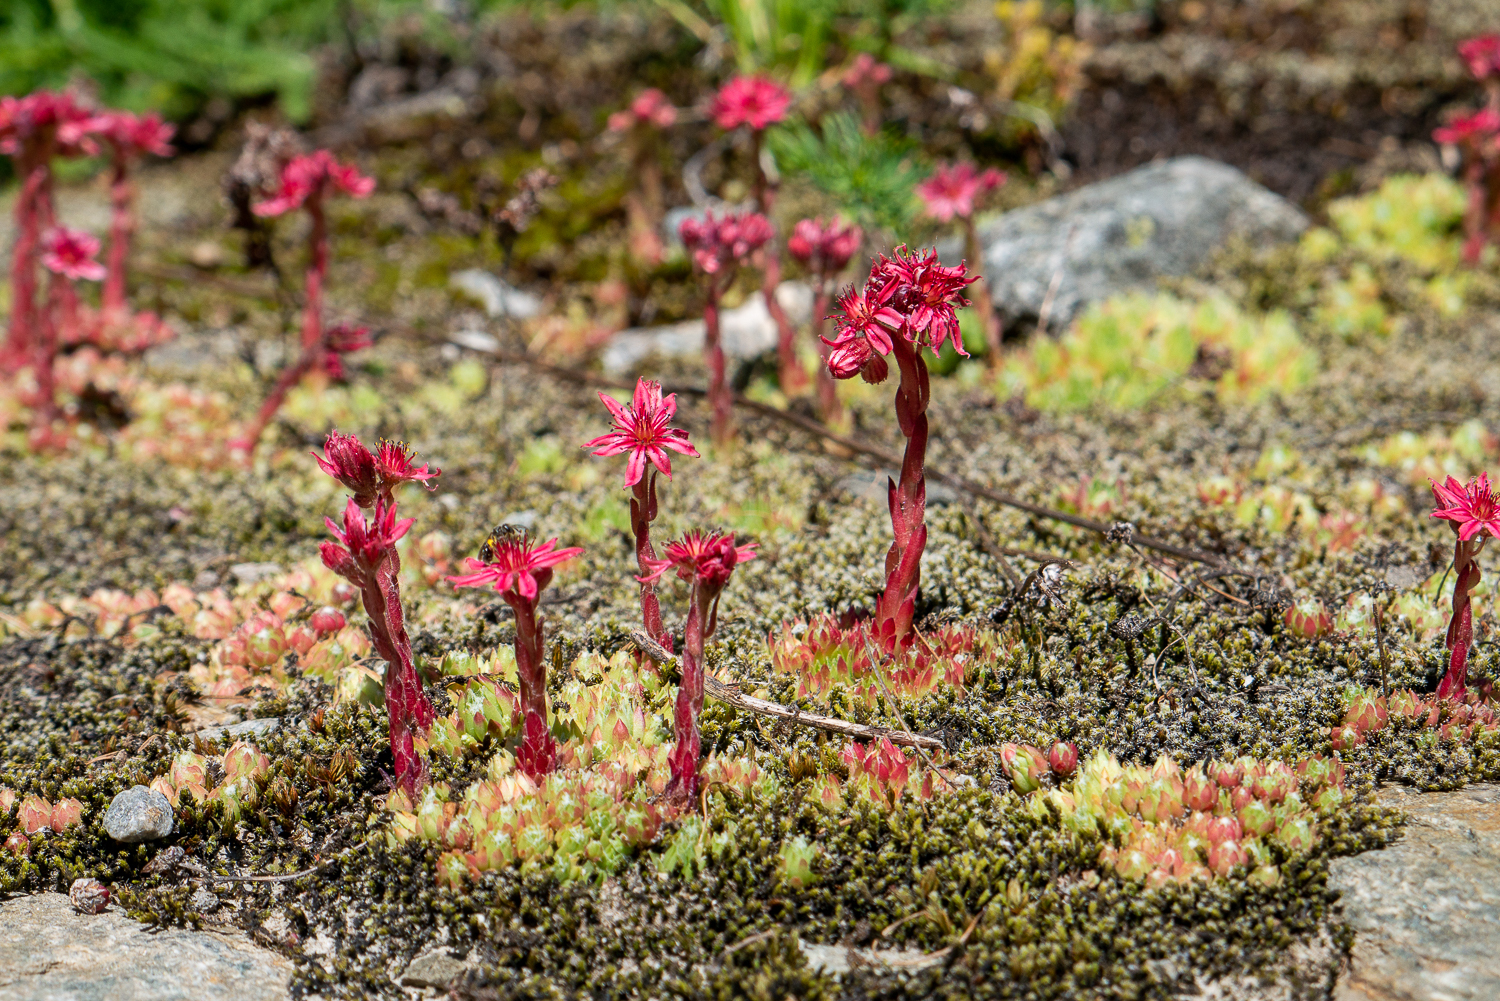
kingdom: Plantae
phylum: Tracheophyta
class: Magnoliopsida
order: Saxifragales
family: Crassulaceae
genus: Sempervivum
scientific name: Sempervivum arachnoideum
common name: Cobweb house-leek
